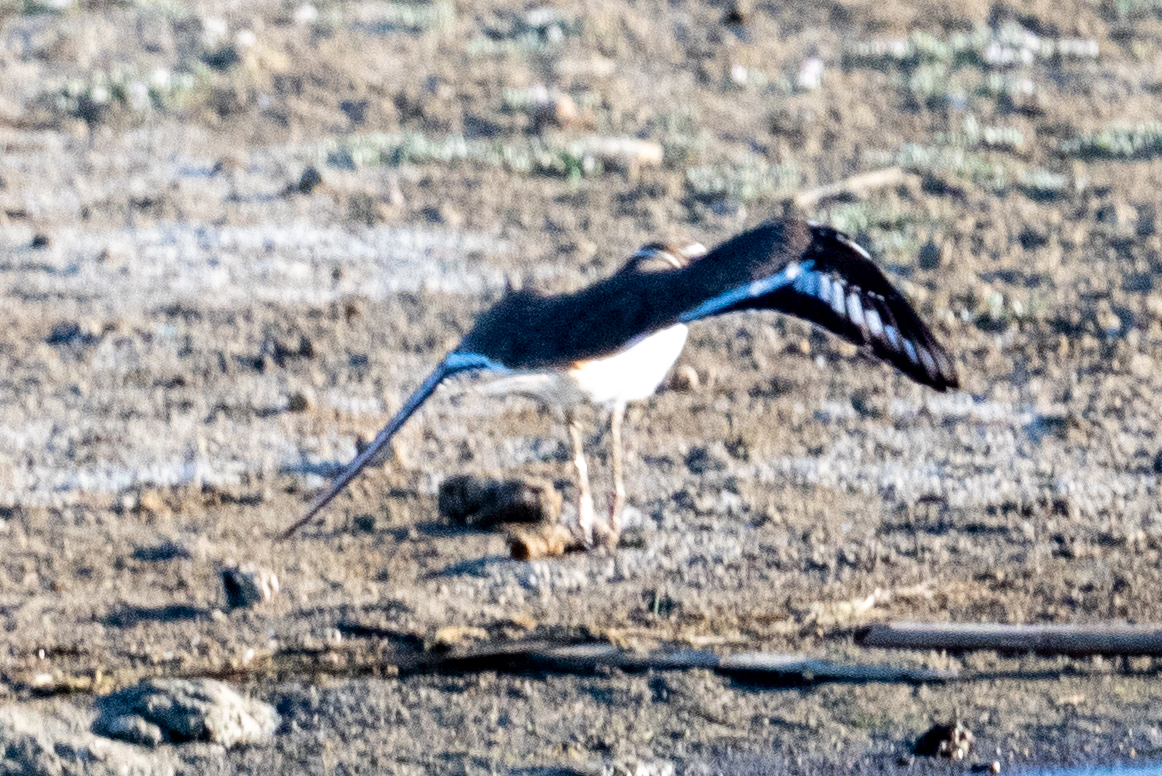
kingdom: Animalia
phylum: Chordata
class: Aves
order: Charadriiformes
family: Charadriidae
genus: Charadrius
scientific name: Charadrius vociferus
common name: Killdeer
